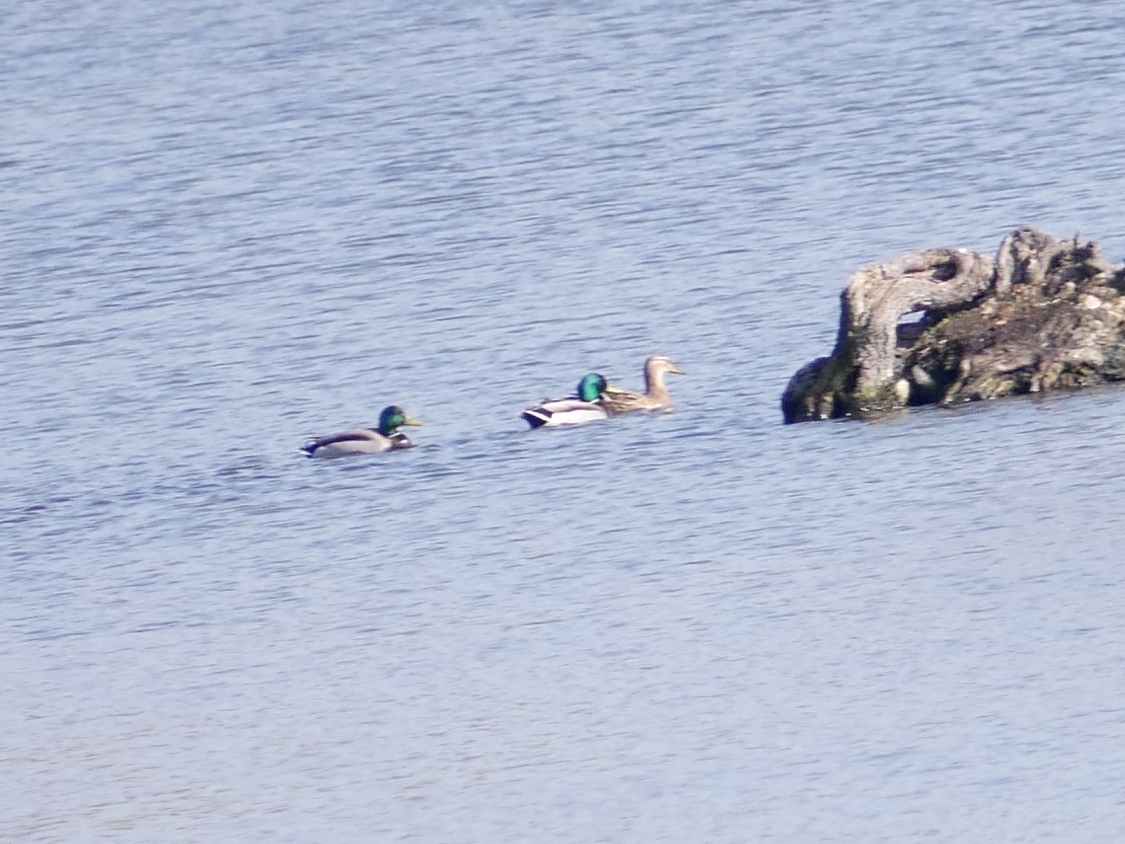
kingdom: Animalia
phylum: Chordata
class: Aves
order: Anseriformes
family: Anatidae
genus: Anas
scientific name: Anas platyrhynchos
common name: Mallard
